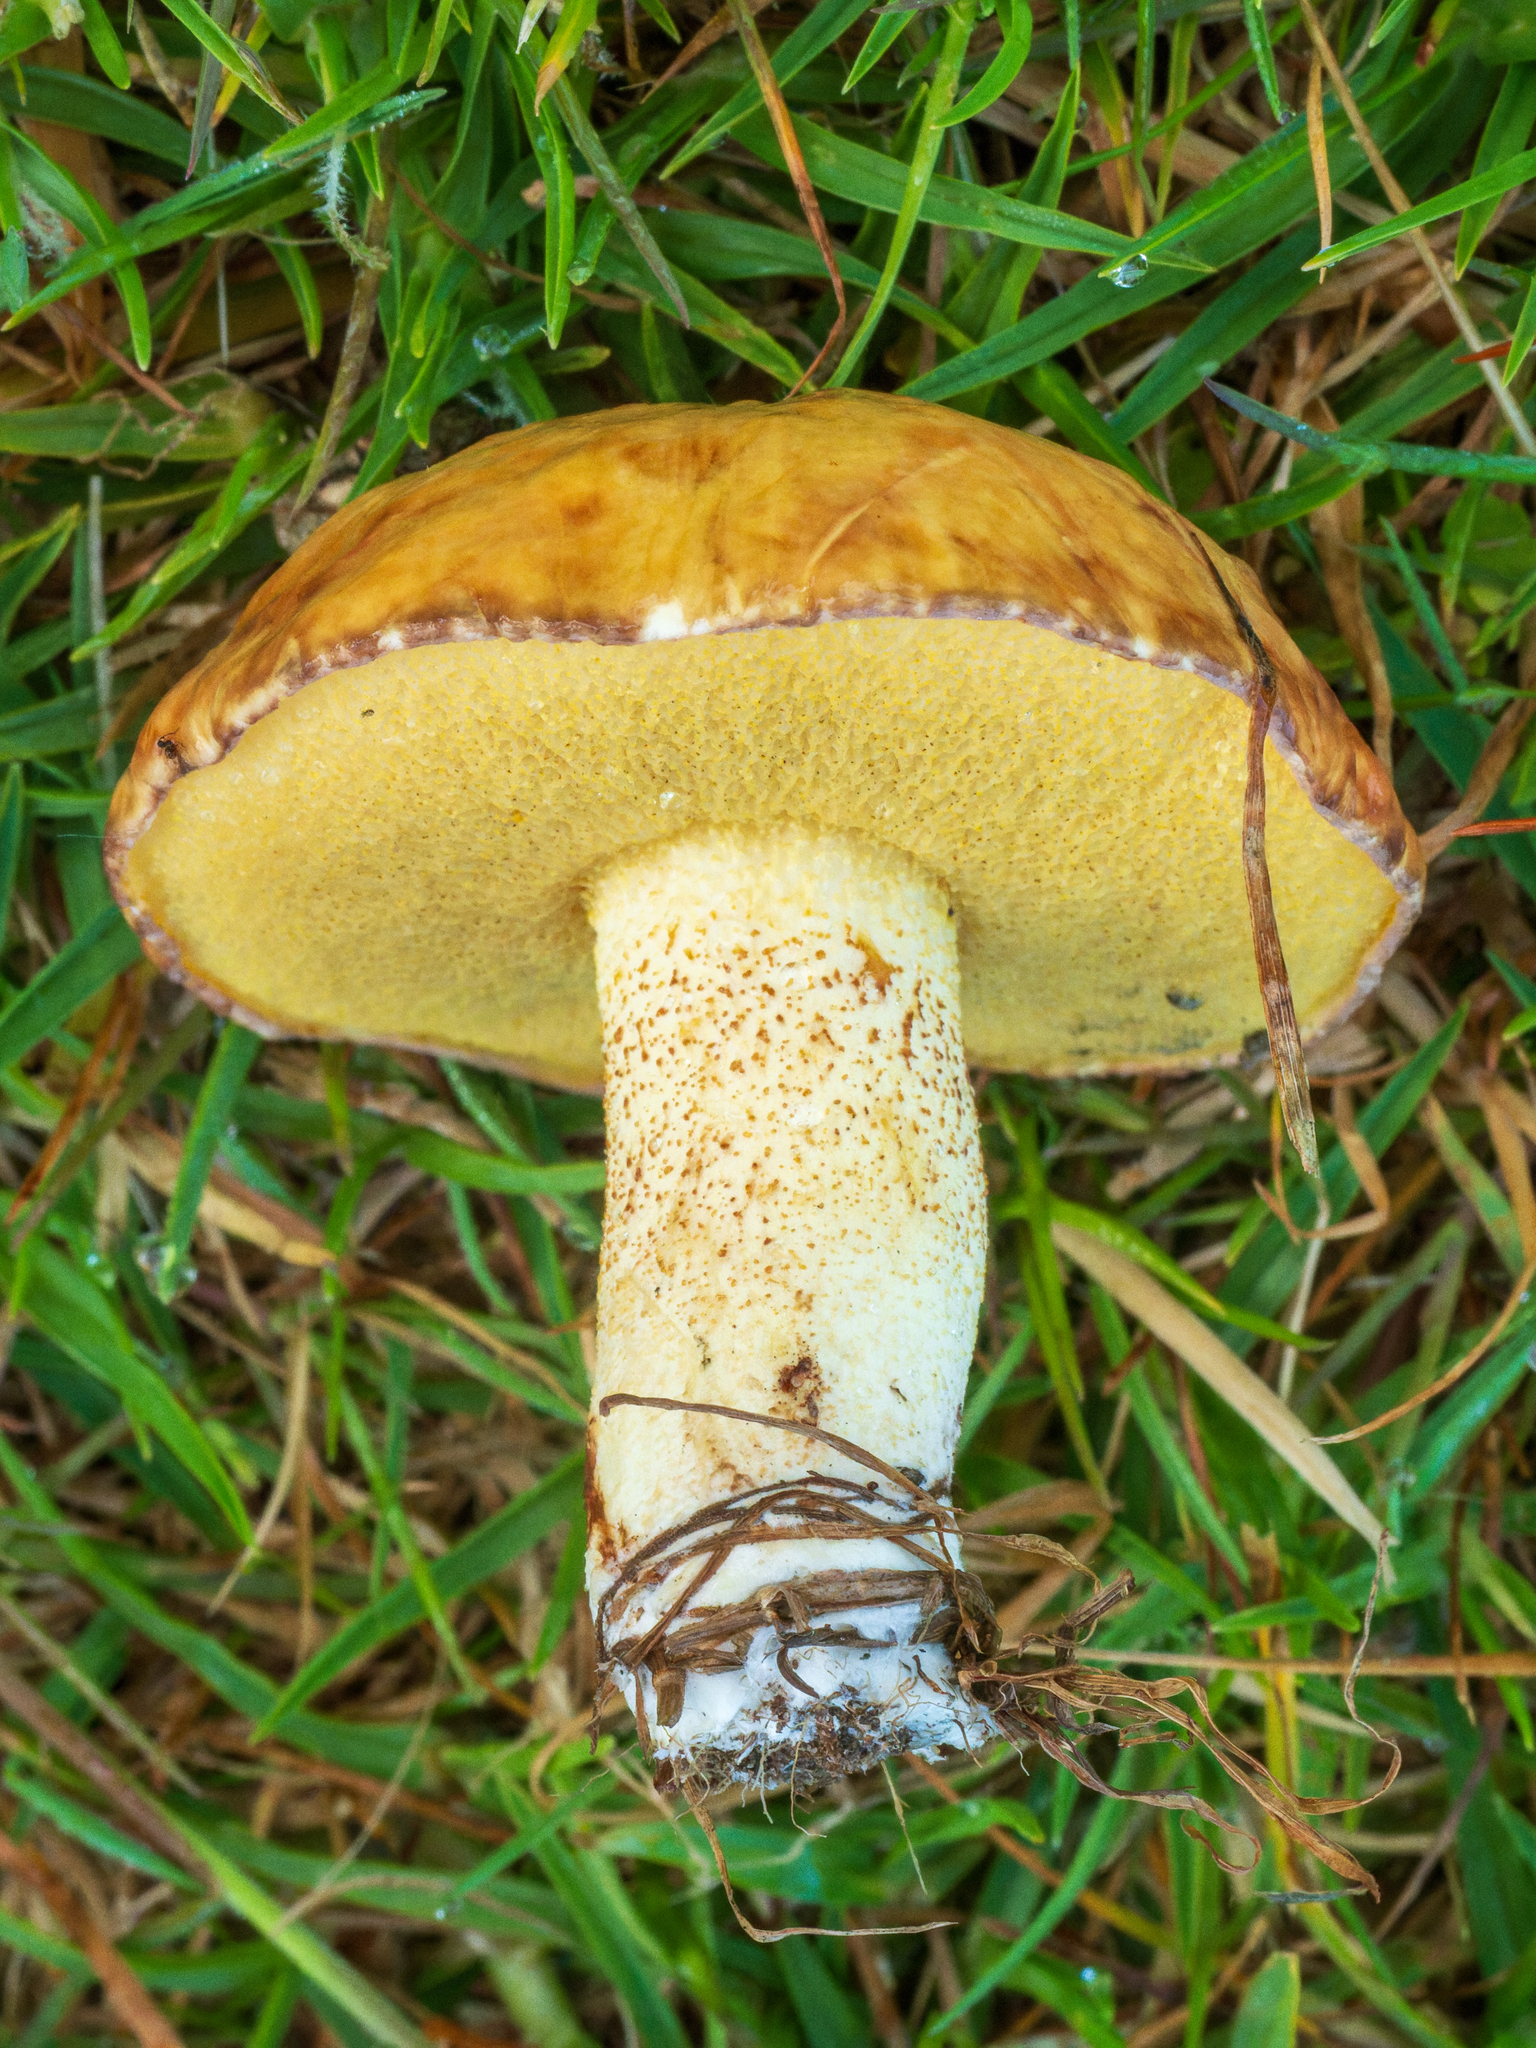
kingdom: Fungi
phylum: Basidiomycota
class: Agaricomycetes
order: Boletales
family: Suillaceae
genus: Suillus
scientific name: Suillus granulatus
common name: Weeping bolete
